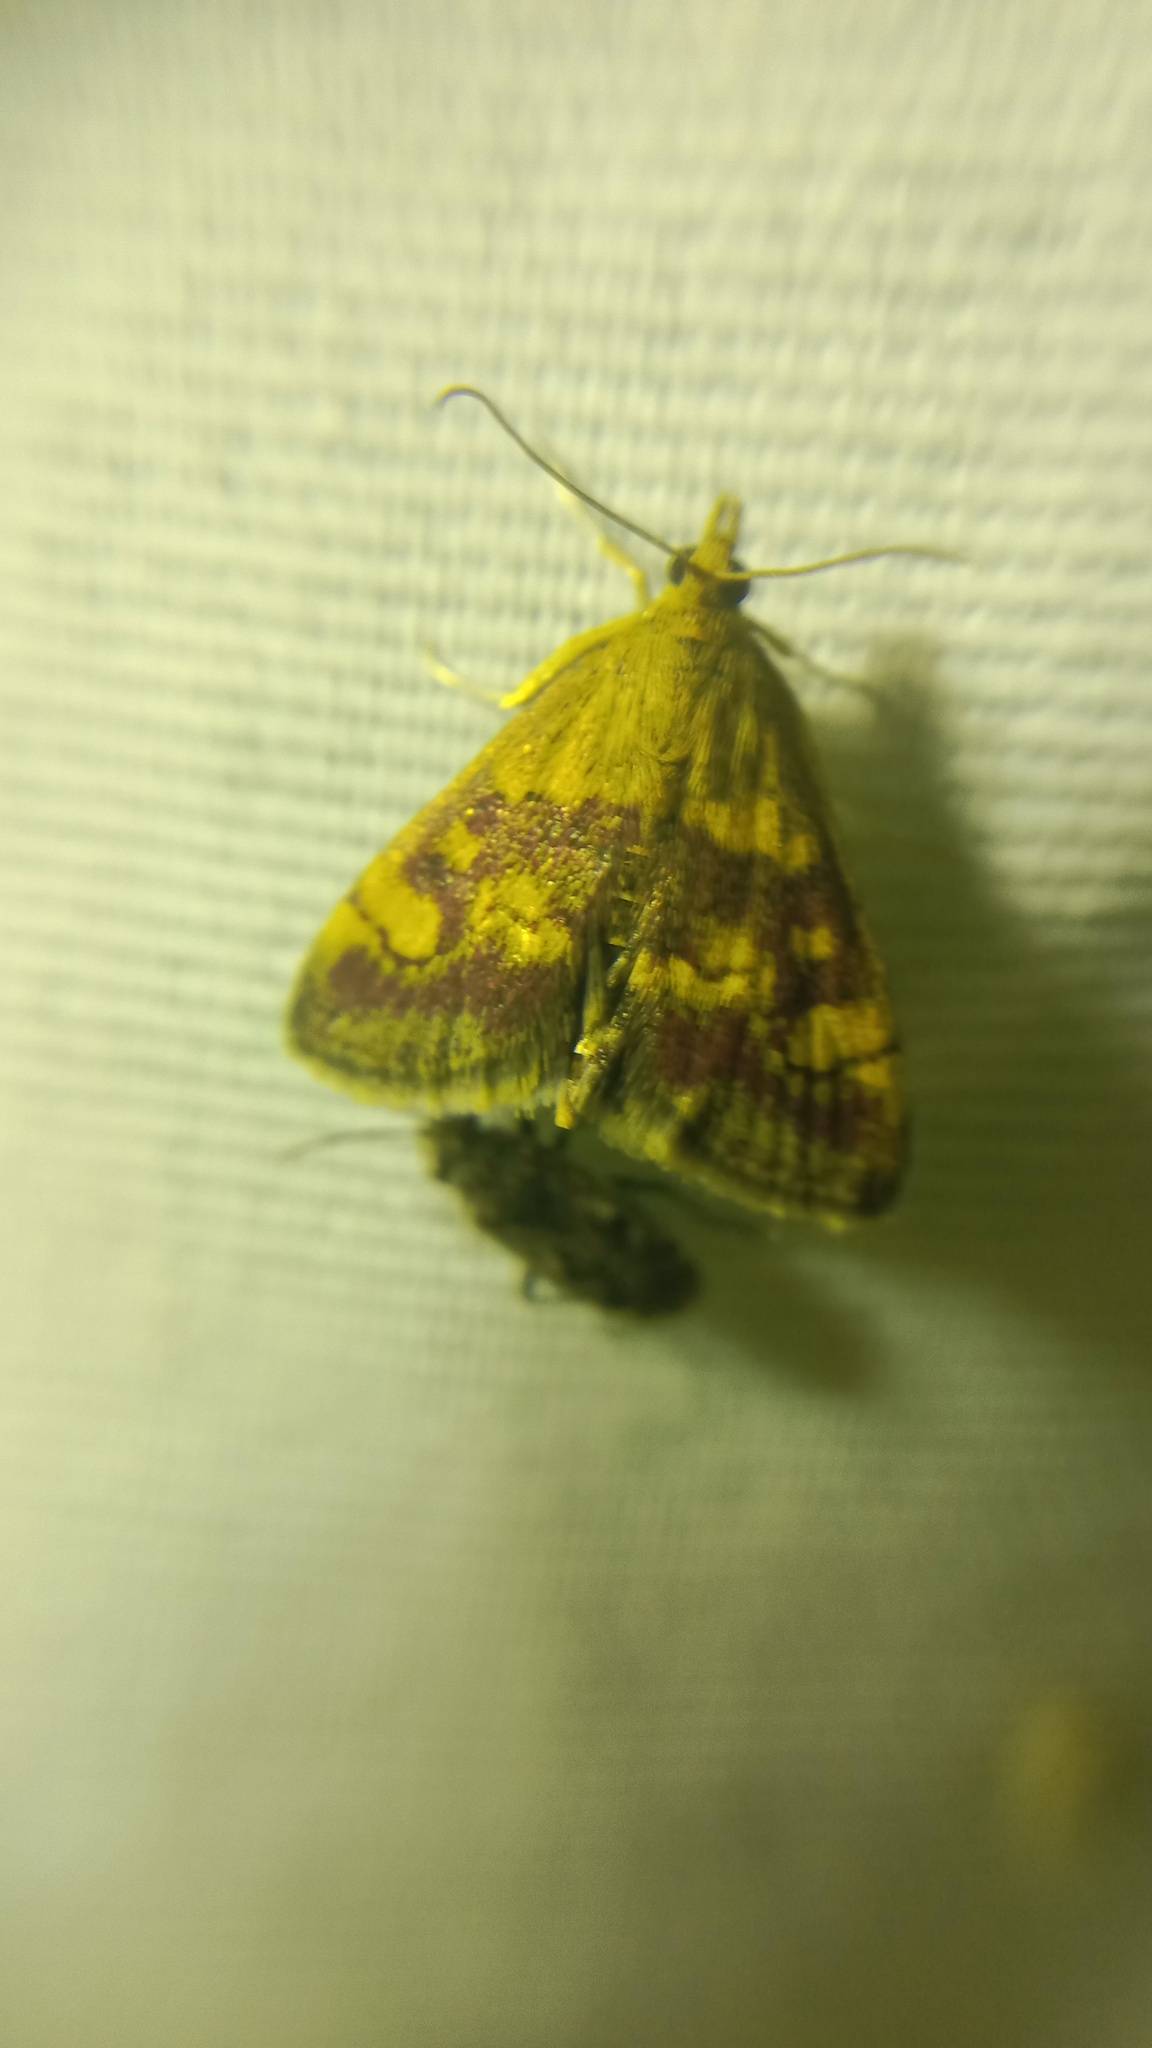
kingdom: Animalia
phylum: Arthropoda
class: Insecta
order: Lepidoptera
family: Crambidae
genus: Pyrausta
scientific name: Pyrausta aurata
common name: Small purple & gold
